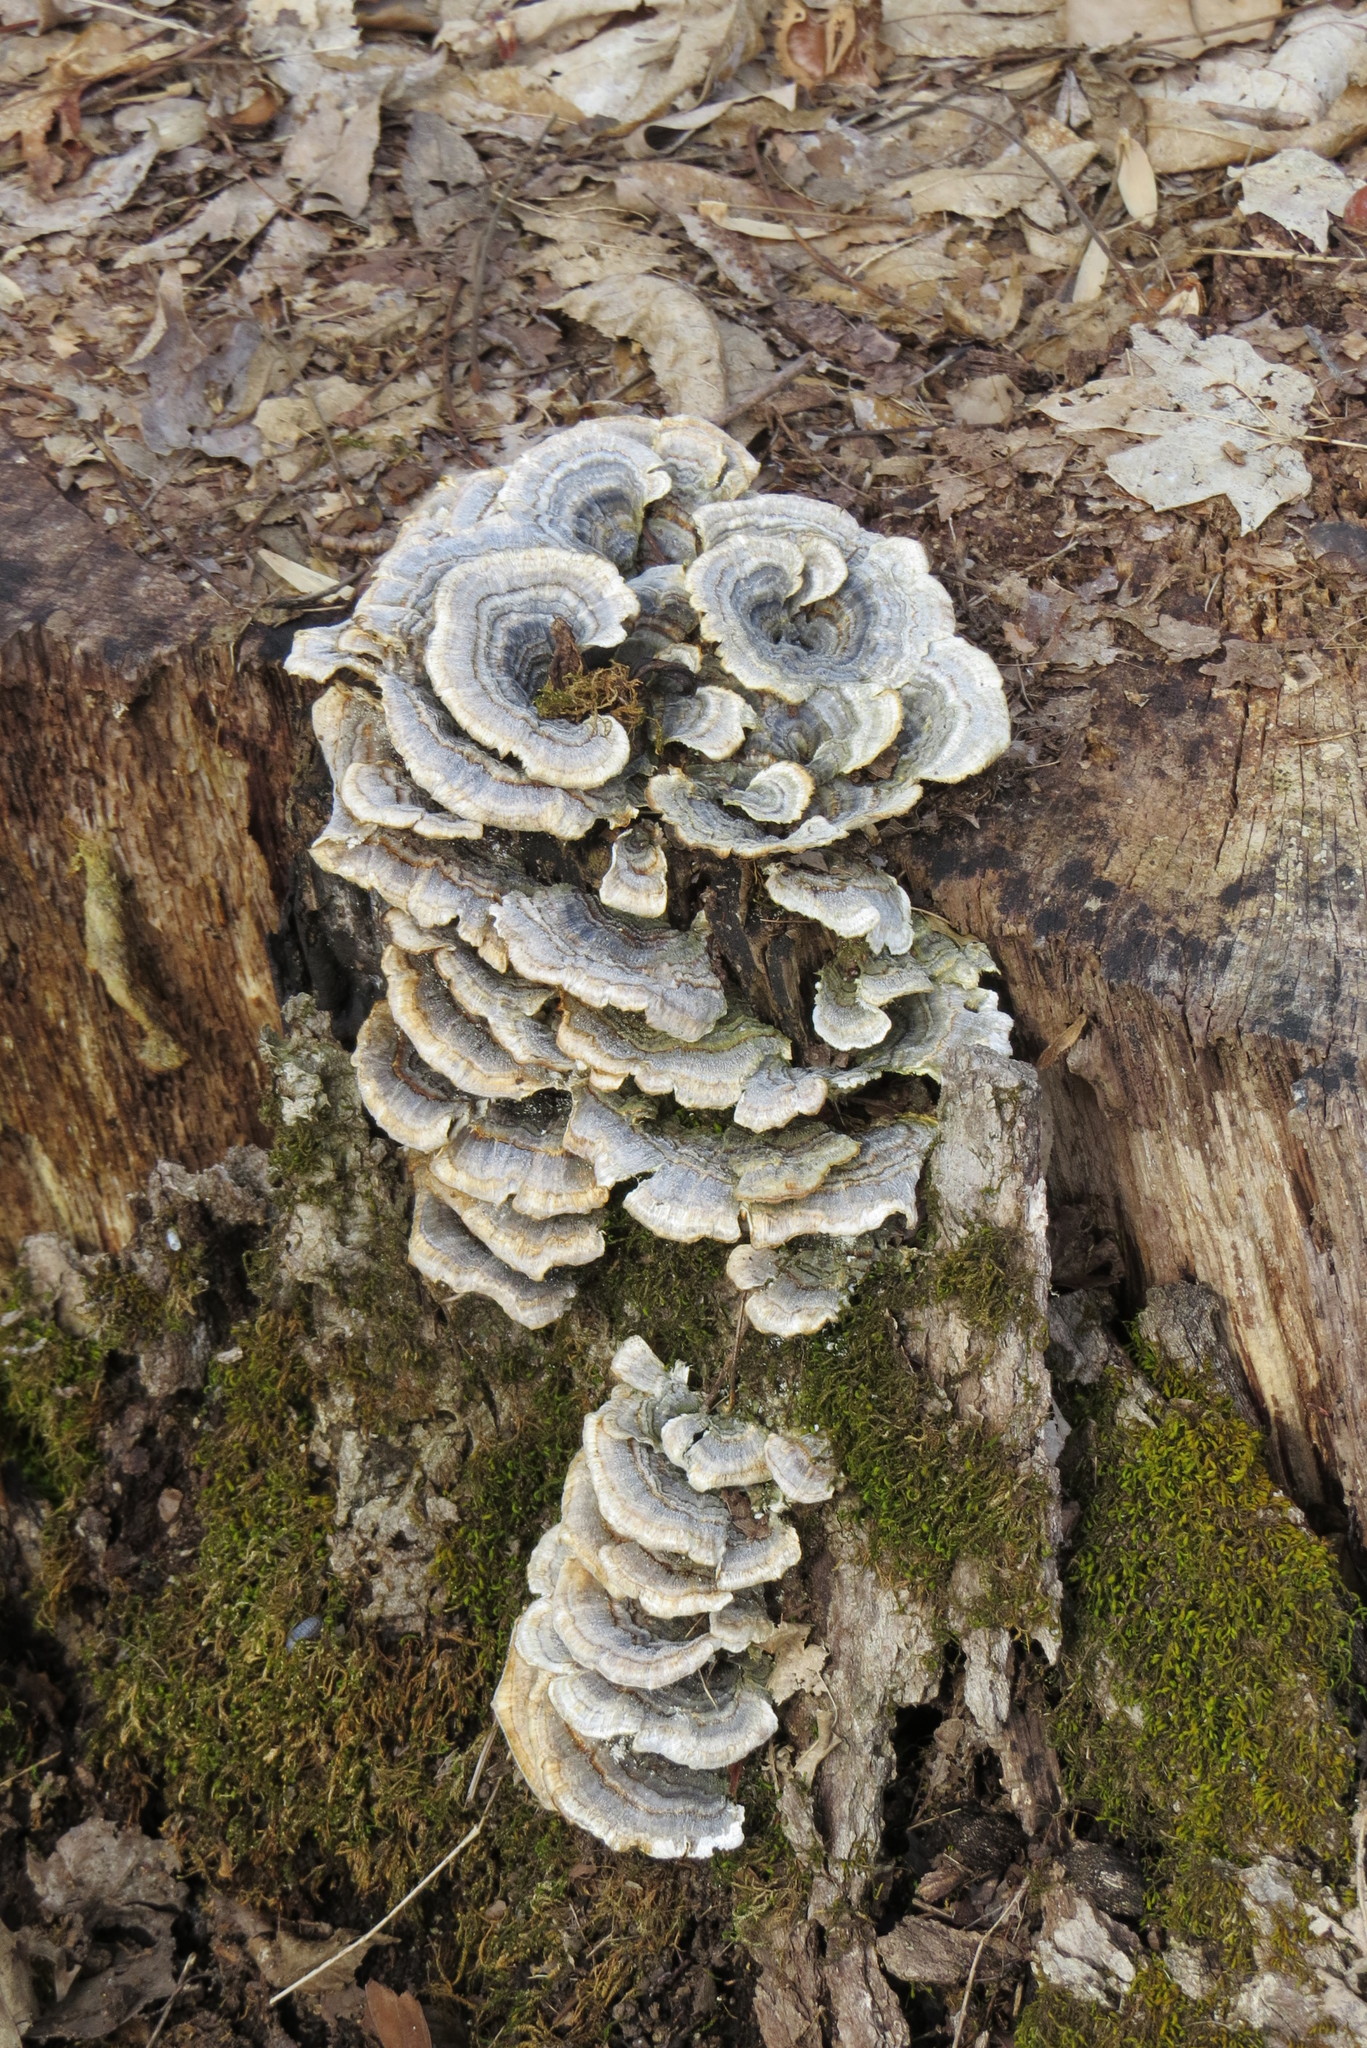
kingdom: Fungi
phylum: Basidiomycota
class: Agaricomycetes
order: Polyporales
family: Polyporaceae
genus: Trametes
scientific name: Trametes versicolor
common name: Turkeytail
